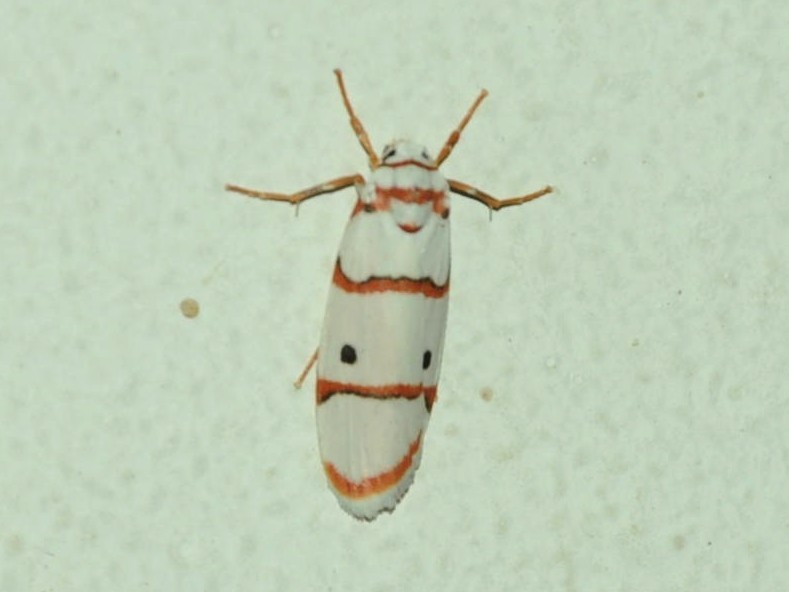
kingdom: Animalia
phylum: Arthropoda
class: Insecta
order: Lepidoptera
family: Erebidae
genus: Cyana
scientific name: Cyana peregrina
